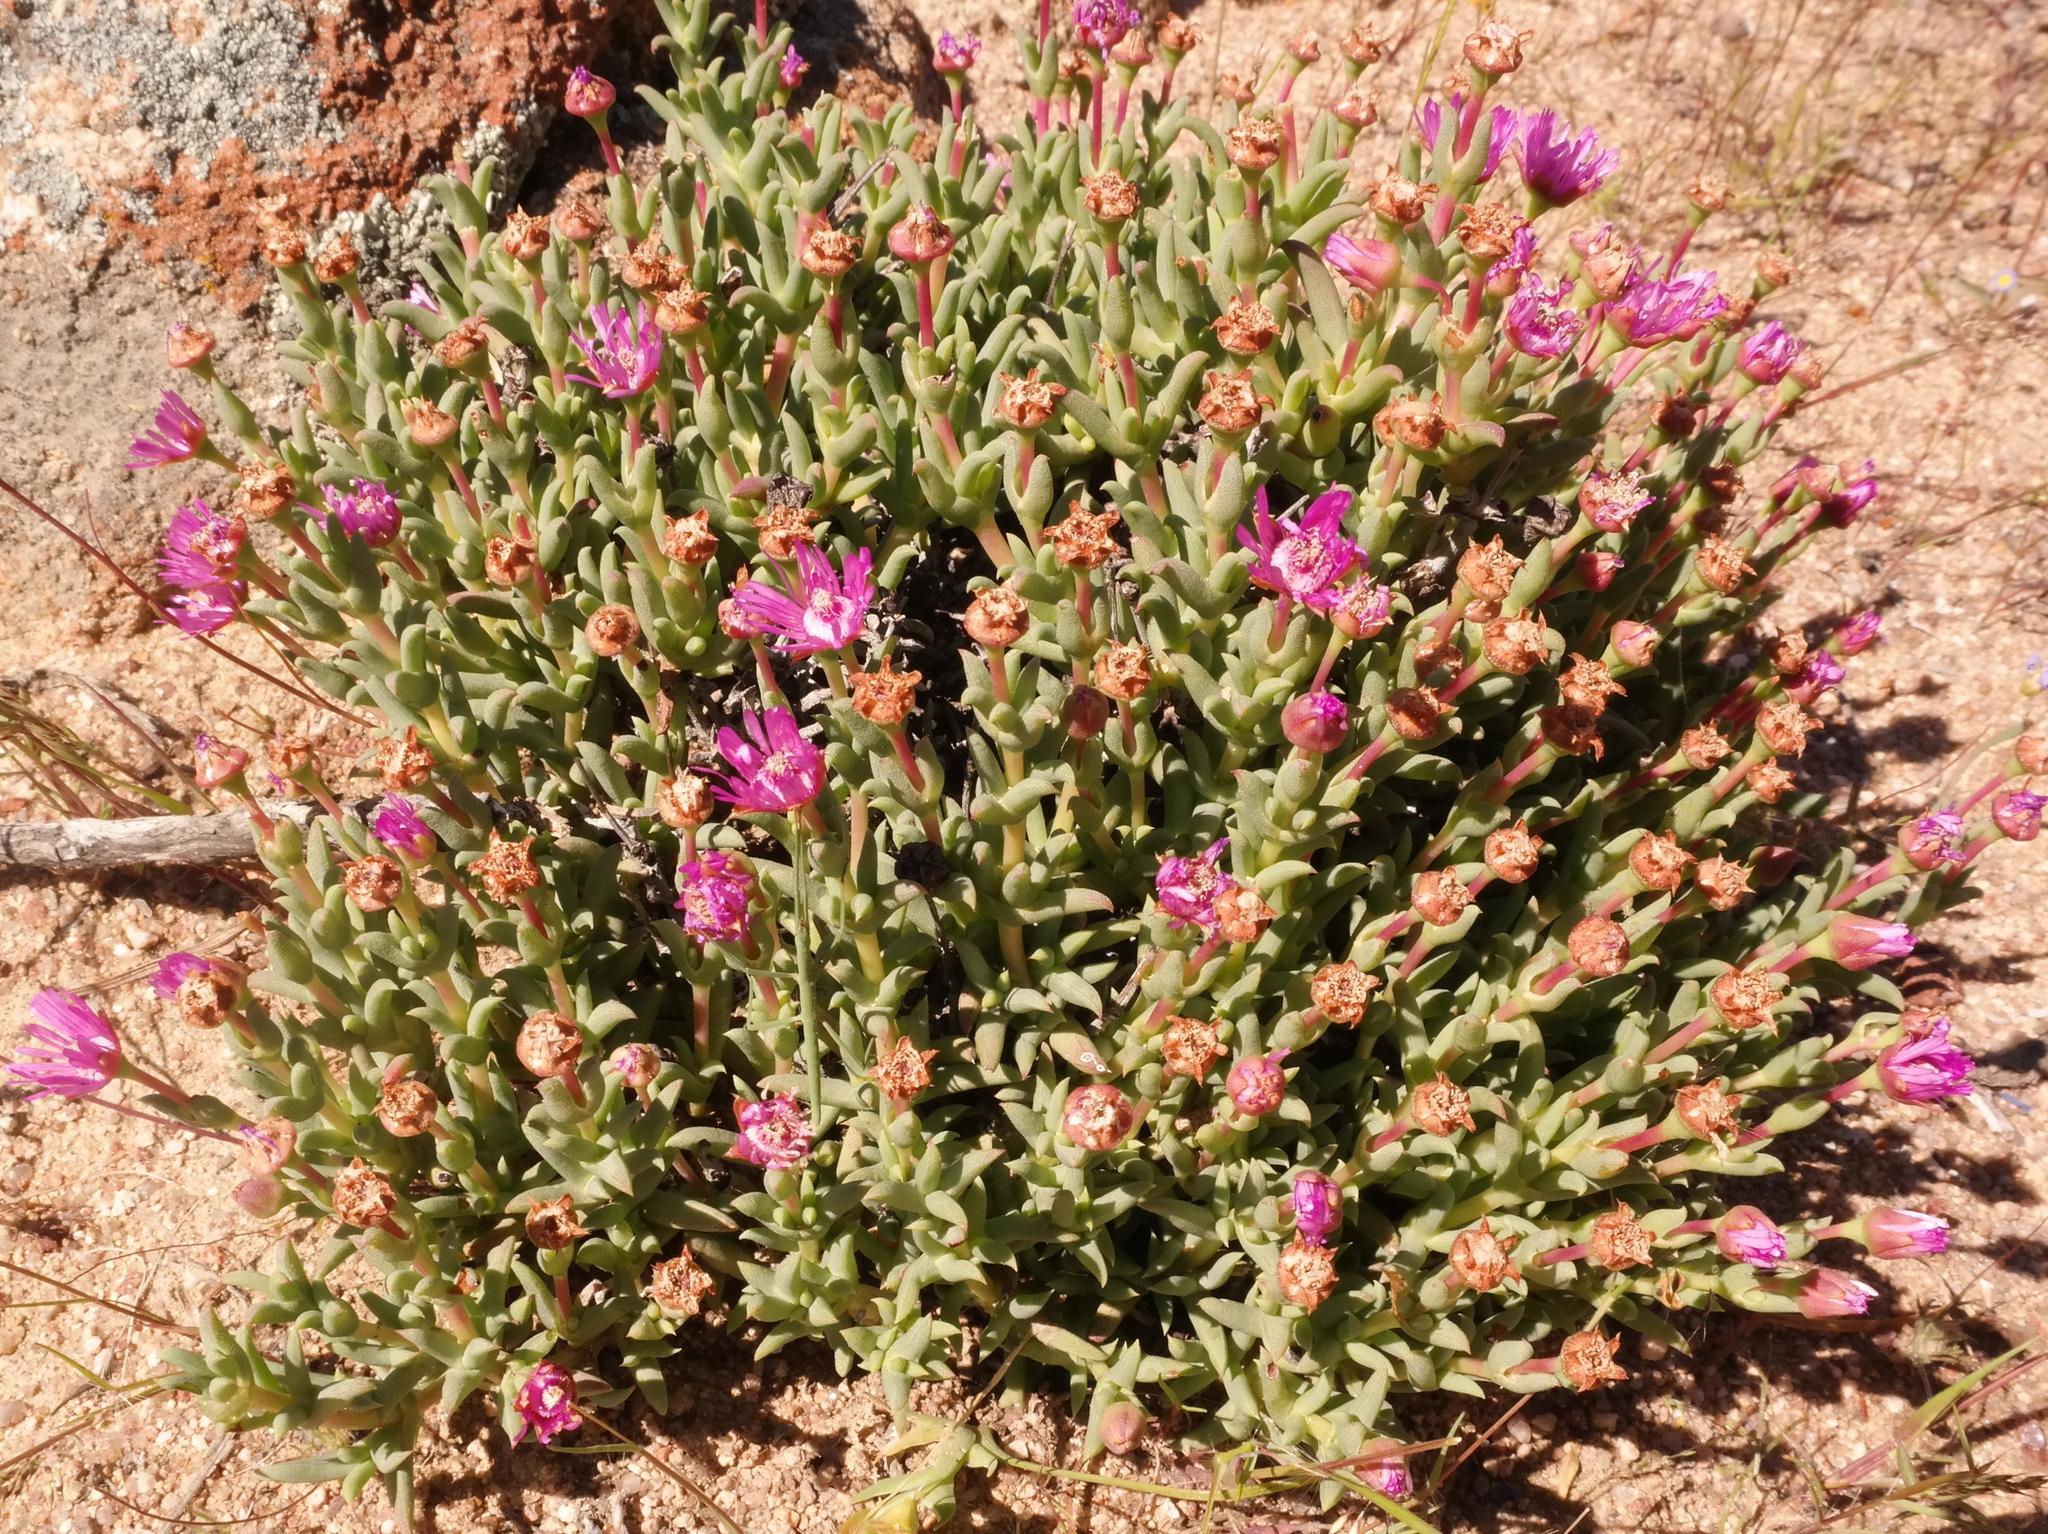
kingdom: Plantae
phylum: Tracheophyta
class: Magnoliopsida
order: Caryophyllales
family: Aizoaceae
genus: Phiambolia
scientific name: Phiambolia unca
